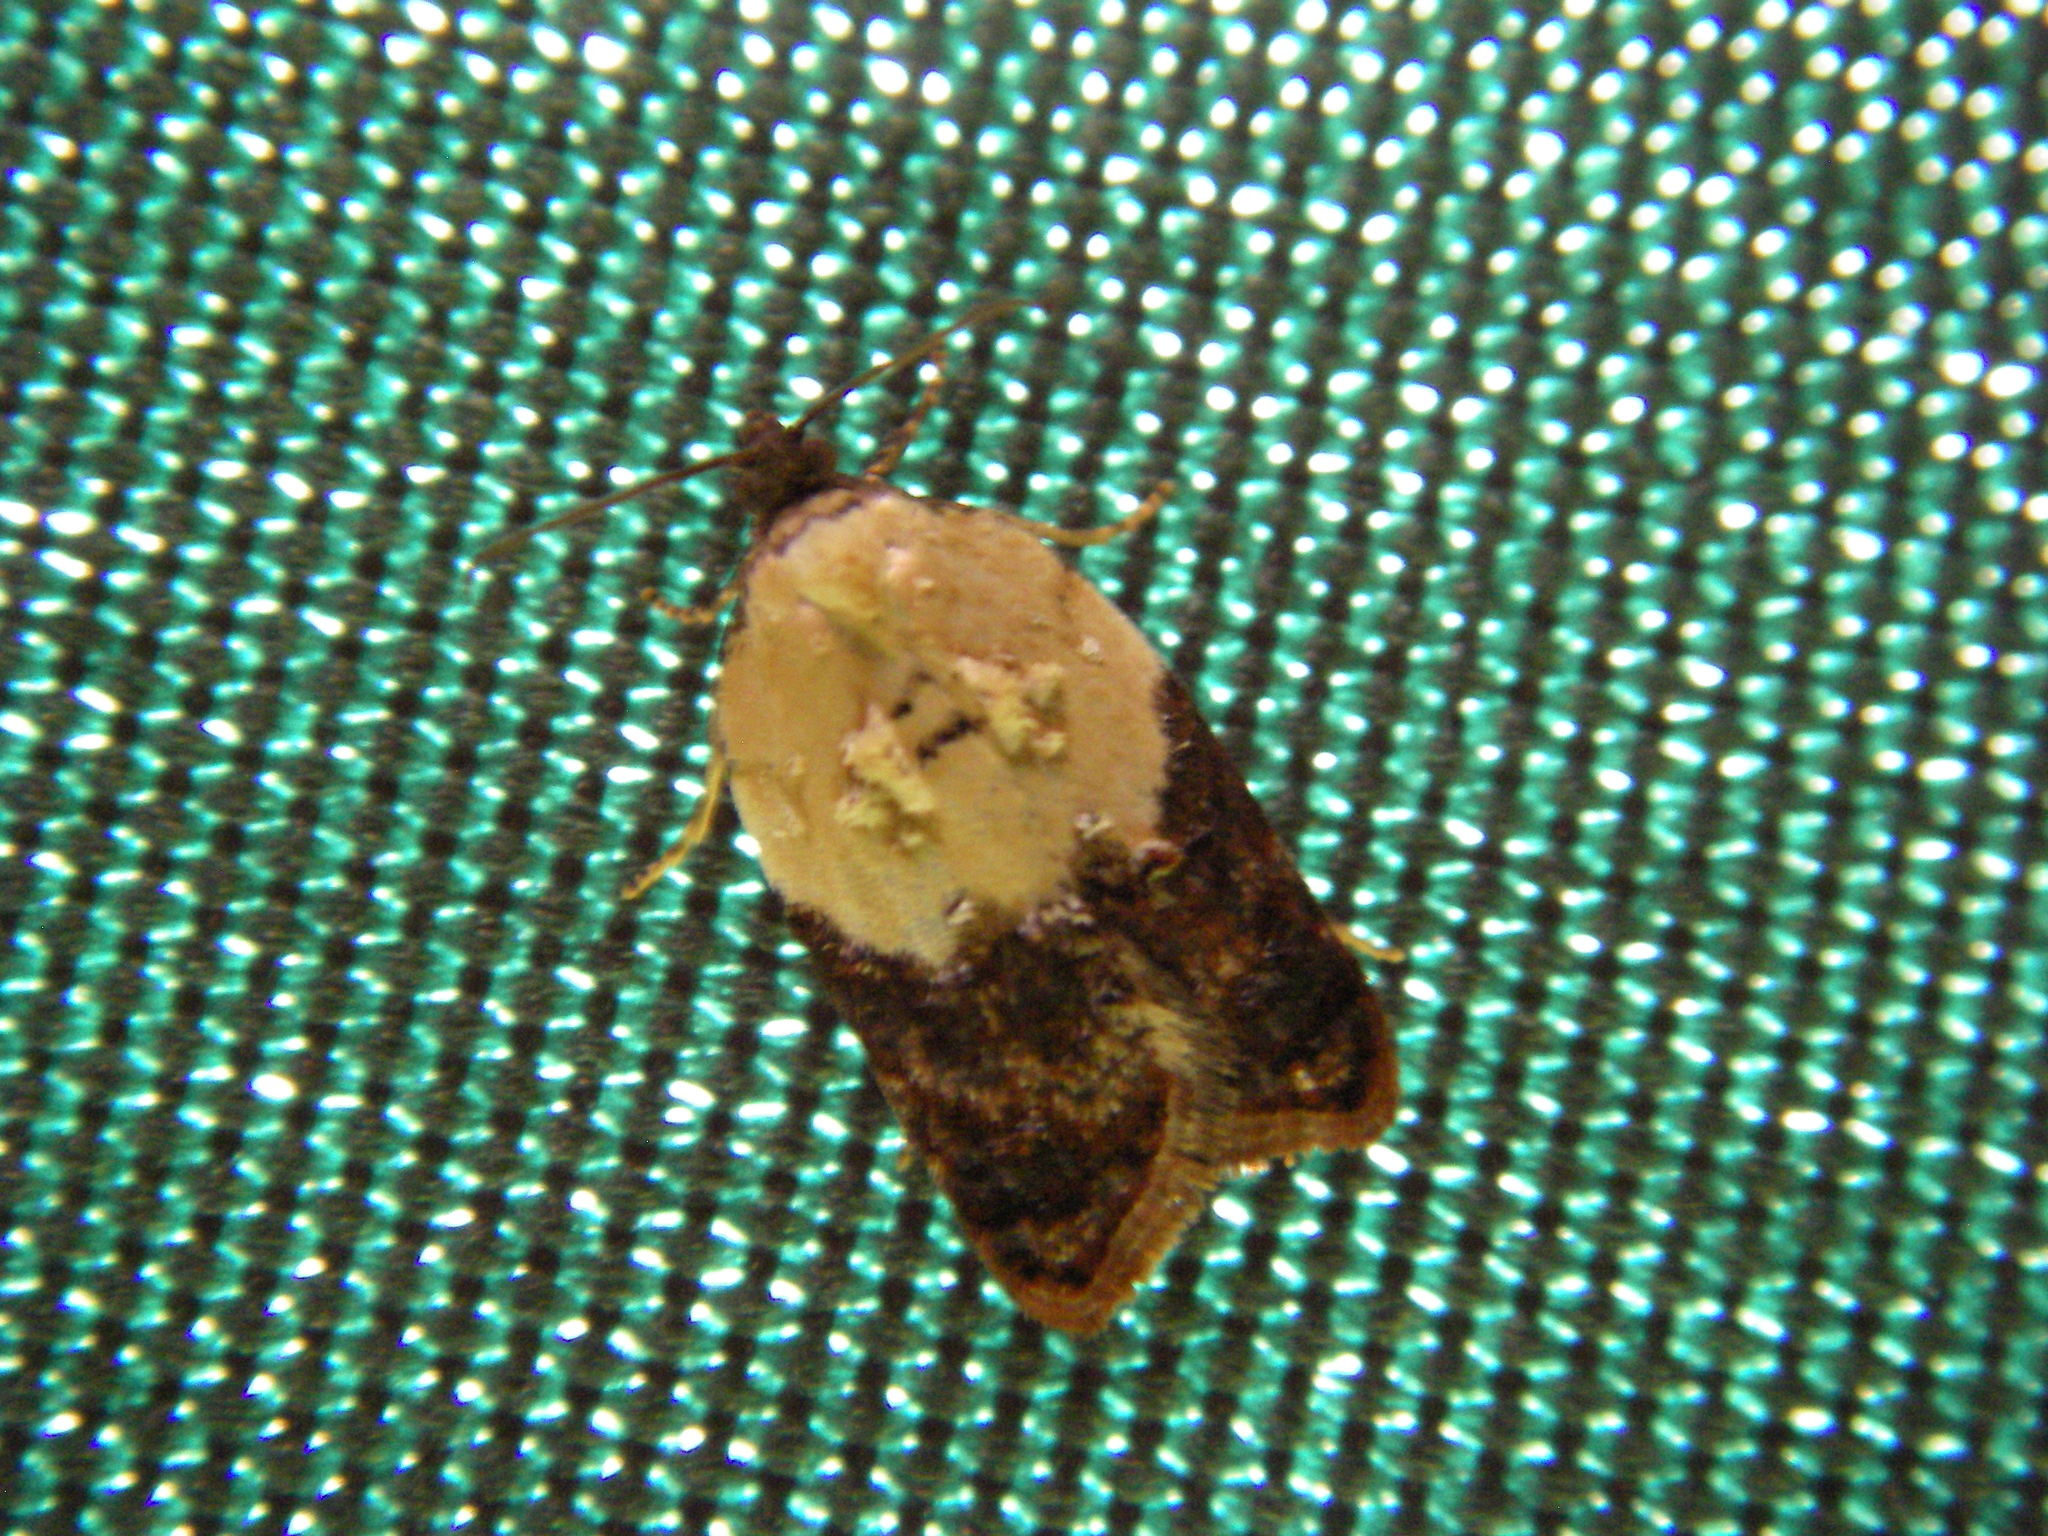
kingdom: Animalia
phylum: Arthropoda
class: Insecta
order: Lepidoptera
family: Tortricidae
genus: Acleris
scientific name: Acleris variegana
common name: Garden rose tortrix
